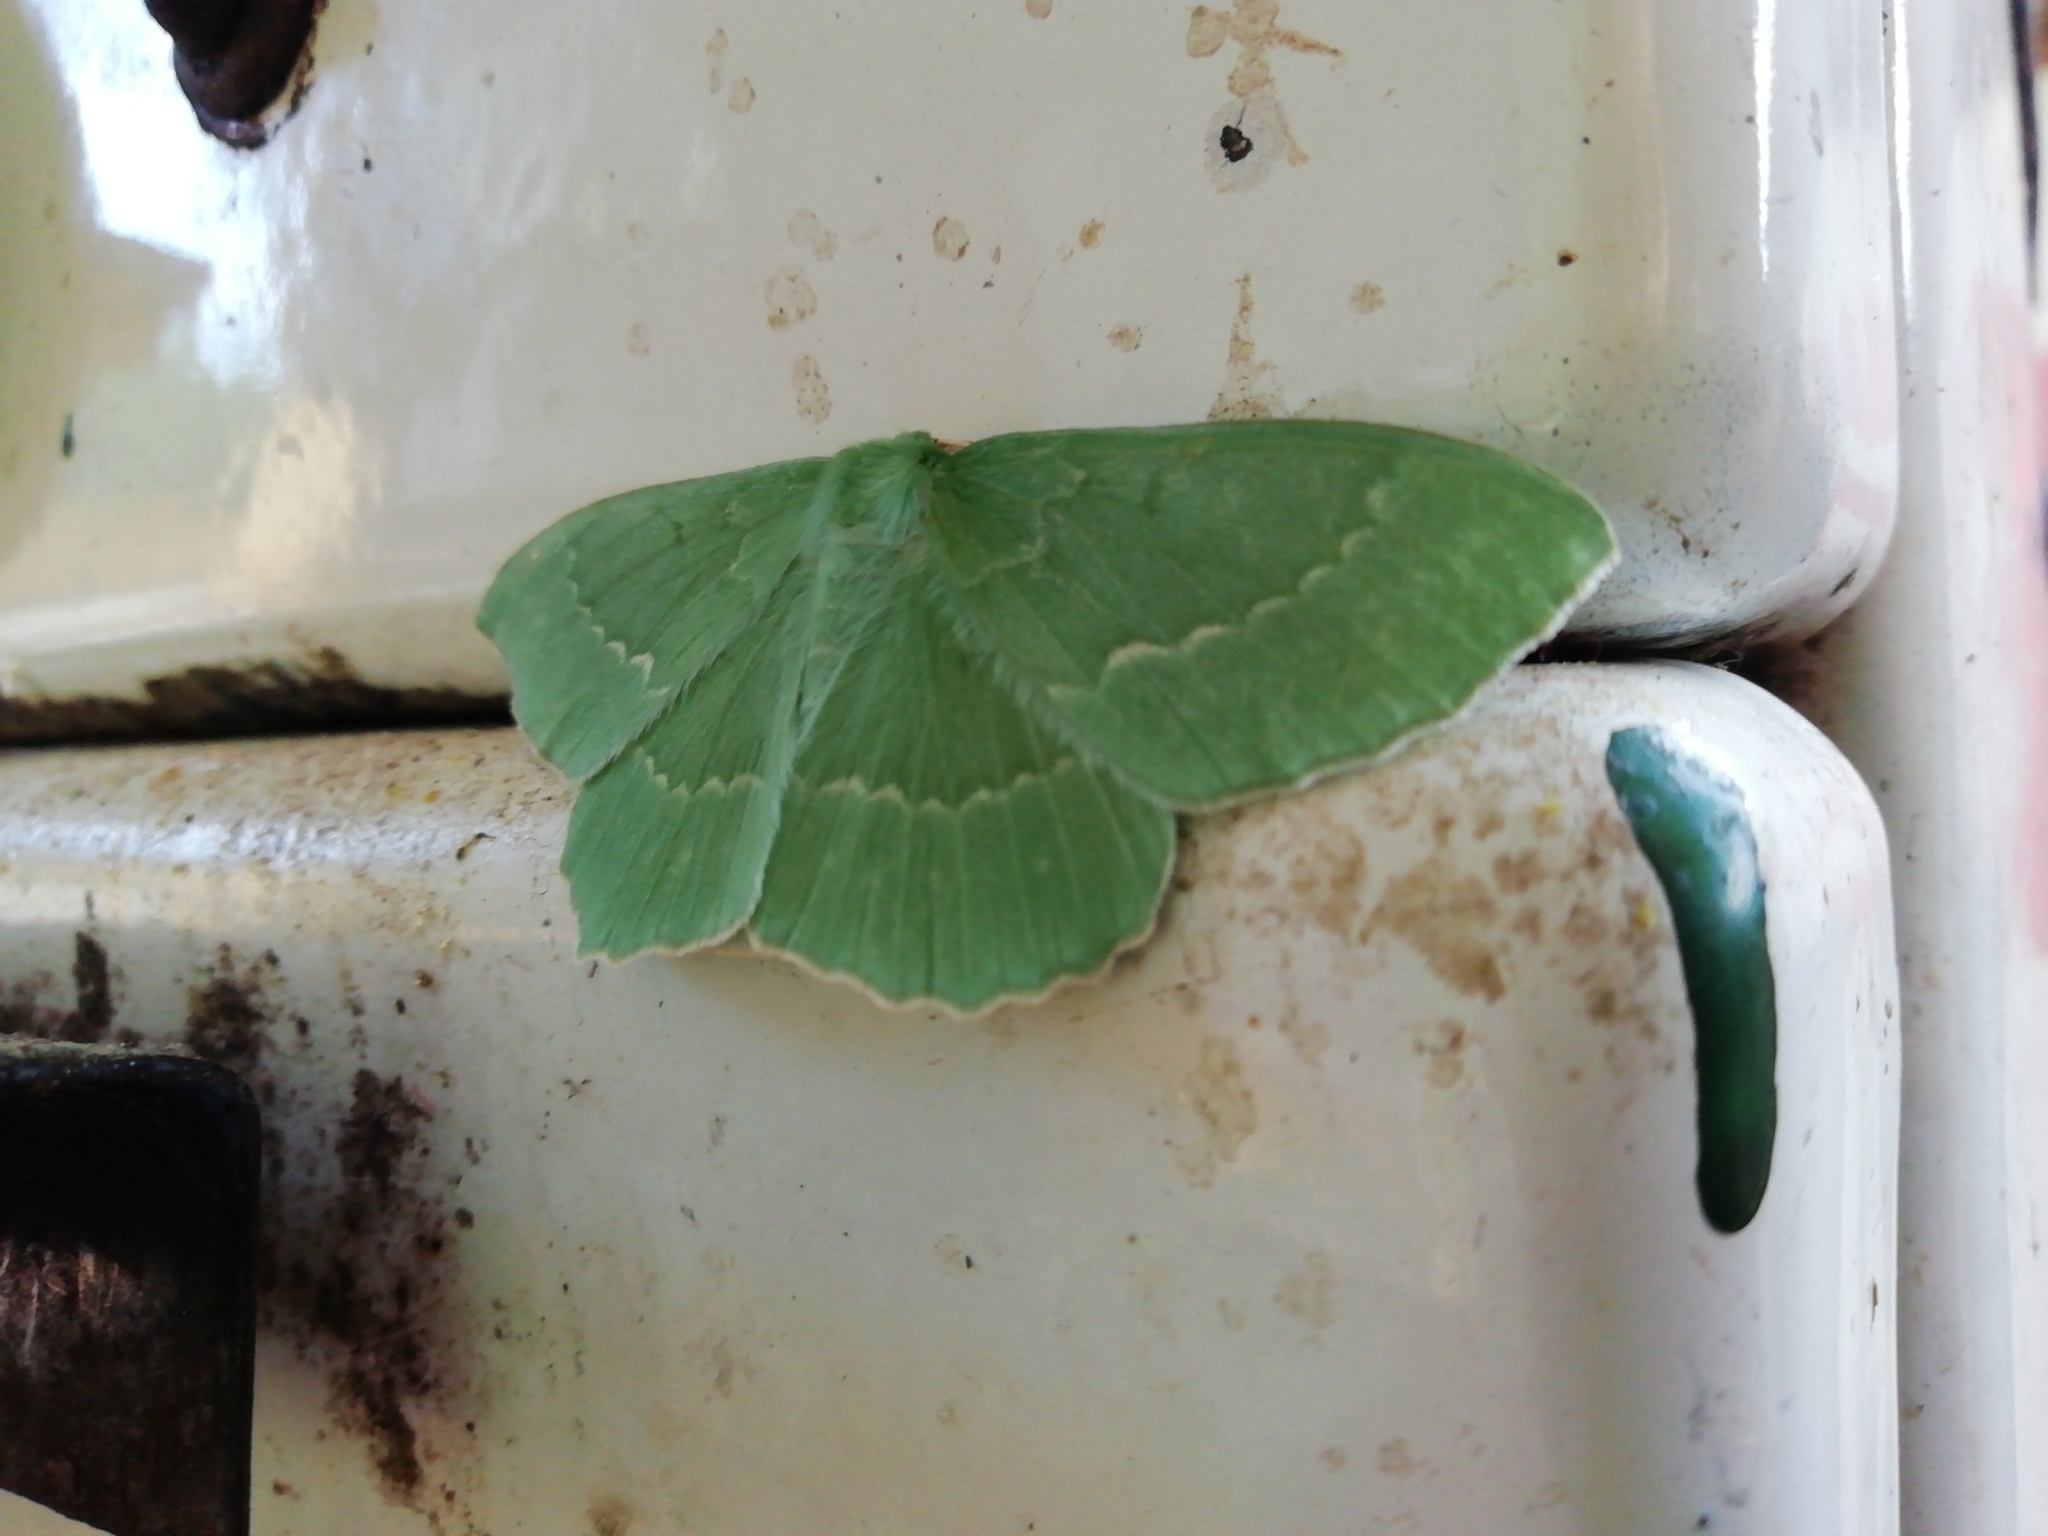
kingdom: Animalia
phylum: Arthropoda
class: Insecta
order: Lepidoptera
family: Geometridae
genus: Geometra
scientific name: Geometra papilionaria
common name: Large emerald
